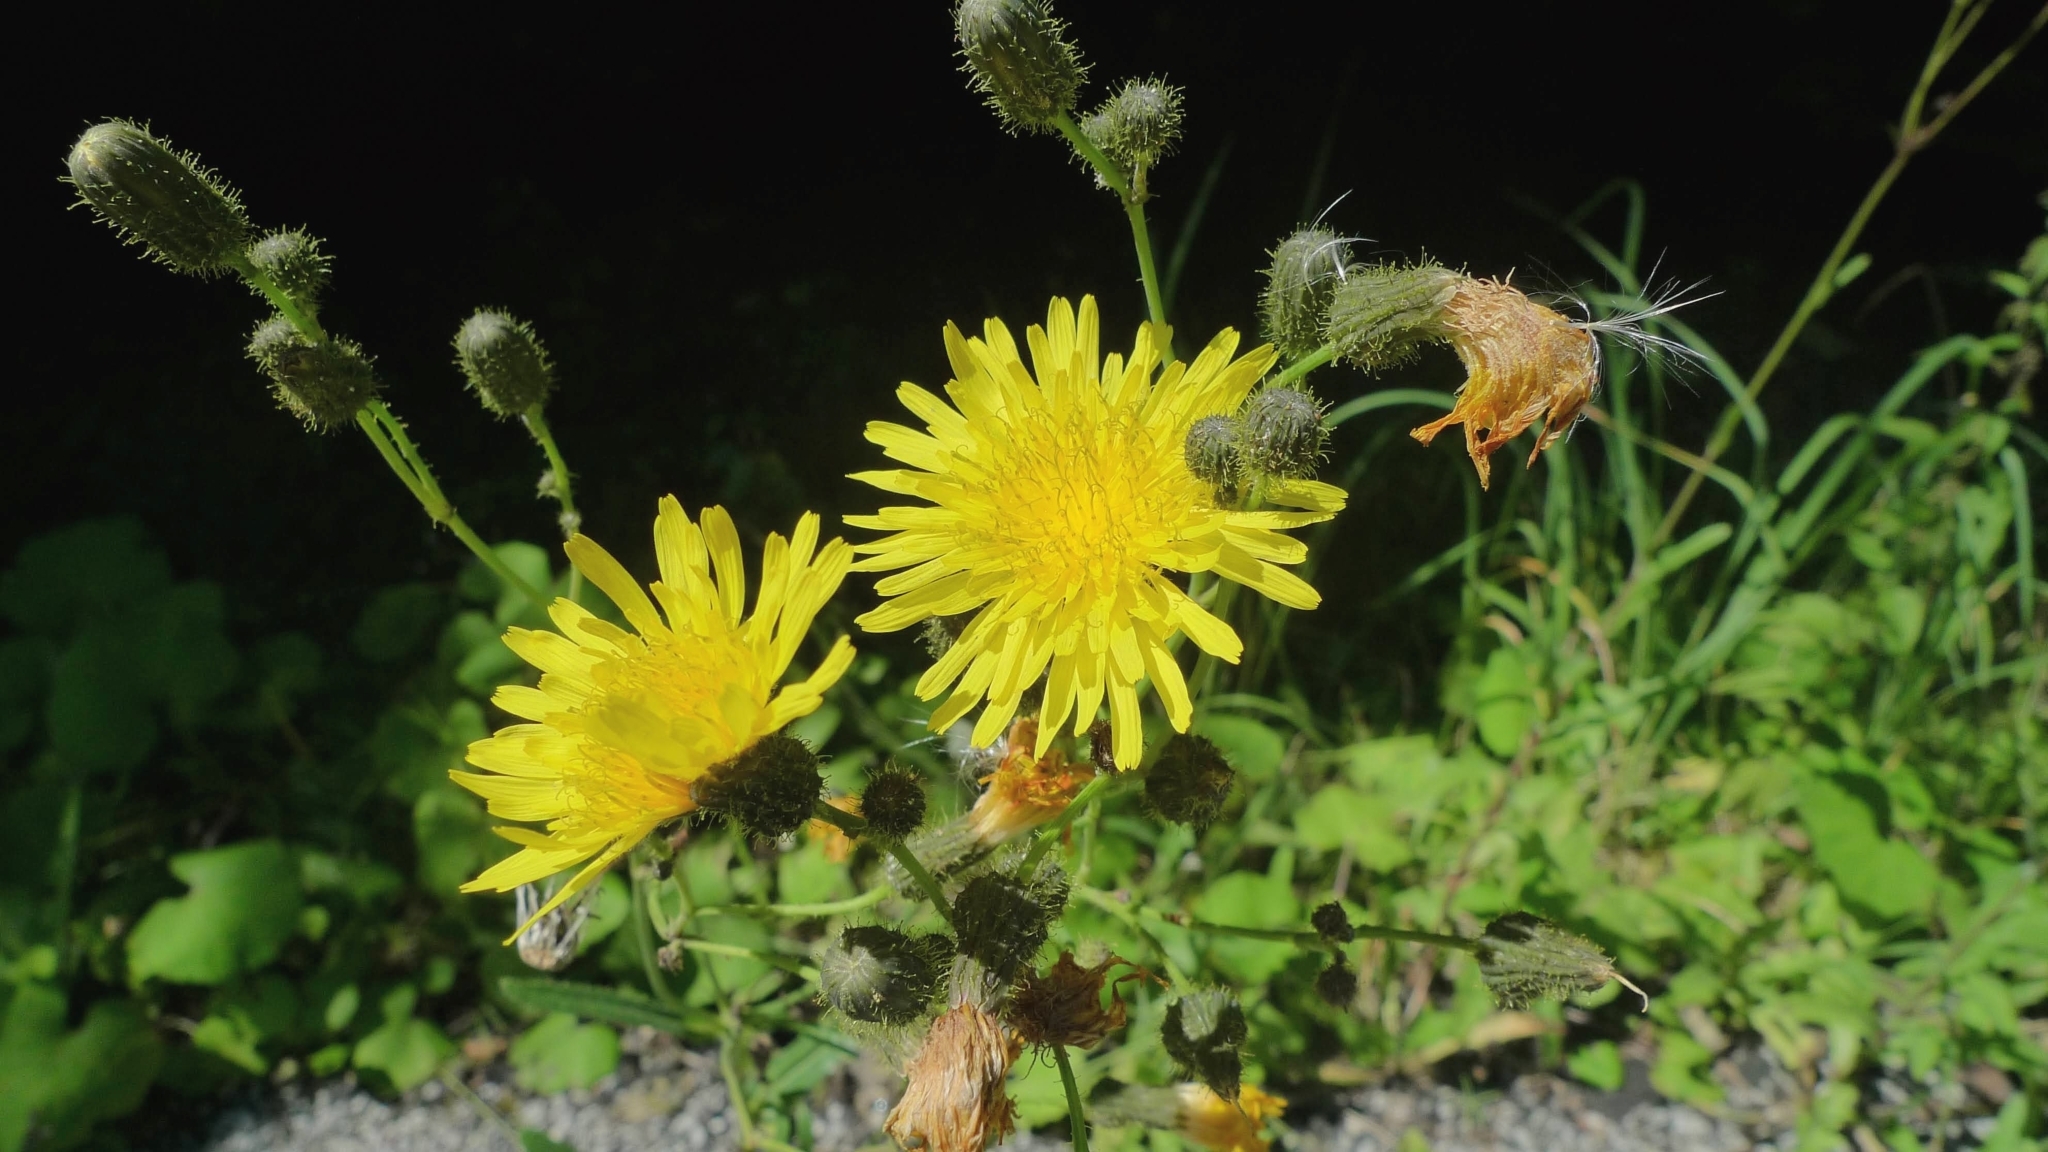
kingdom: Plantae
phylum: Tracheophyta
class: Magnoliopsida
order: Asterales
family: Asteraceae
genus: Sonchus
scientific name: Sonchus arvensis
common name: Perennial sow-thistle
